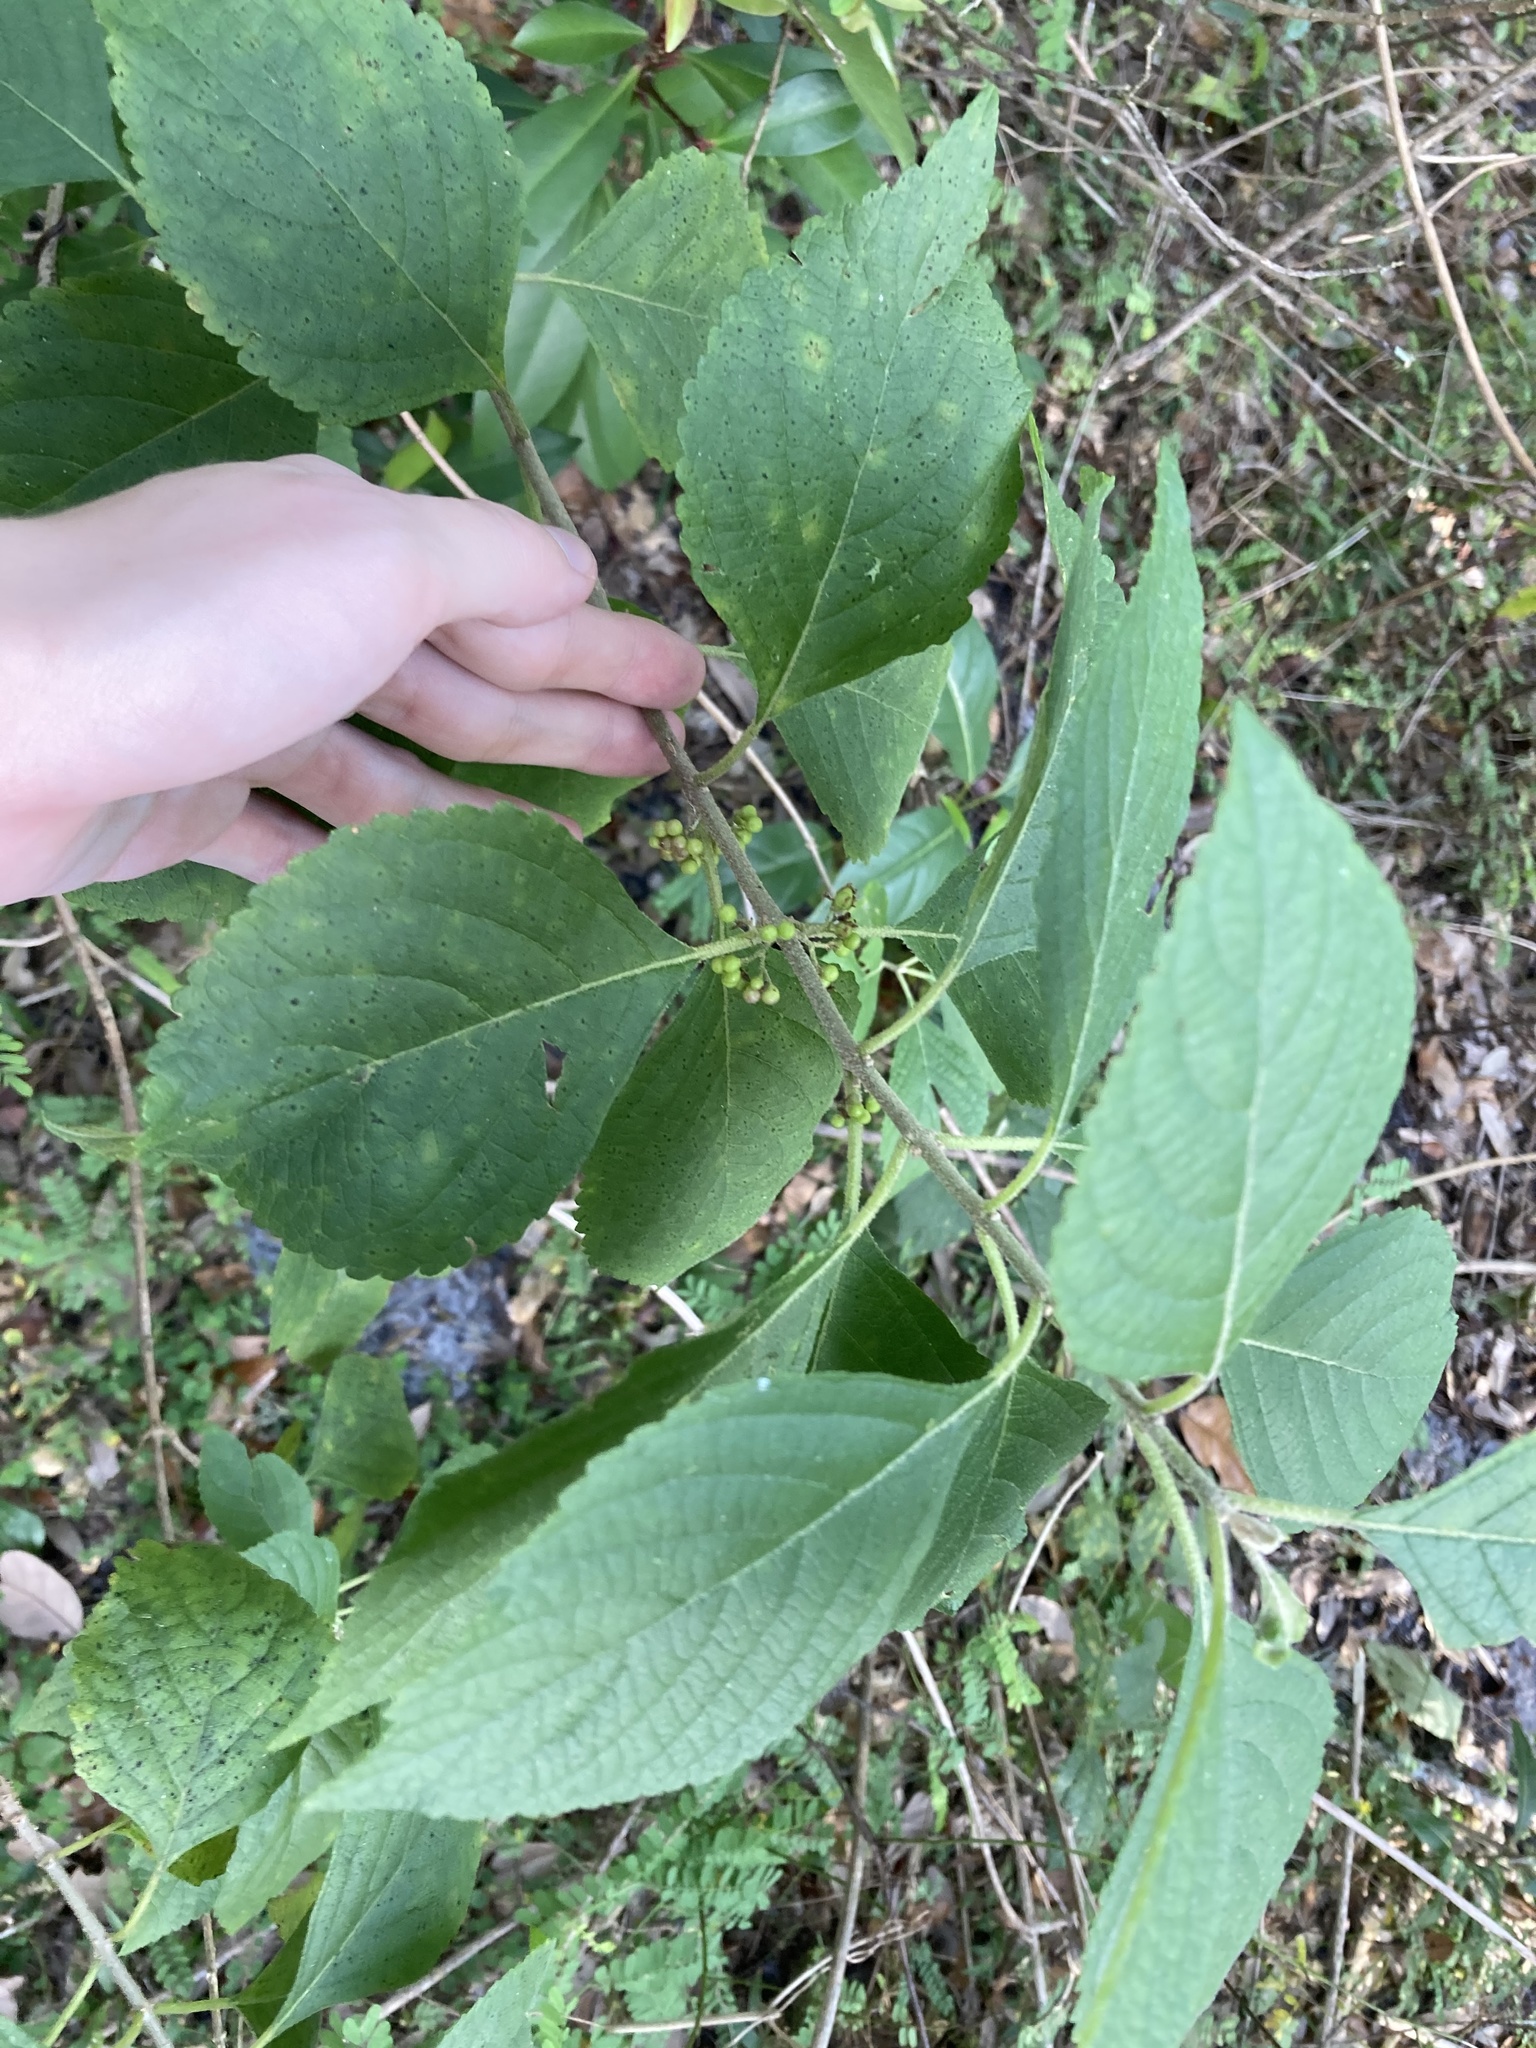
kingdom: Plantae
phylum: Tracheophyta
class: Magnoliopsida
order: Lamiales
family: Lamiaceae
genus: Callicarpa
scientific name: Callicarpa americana
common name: American beautyberry
